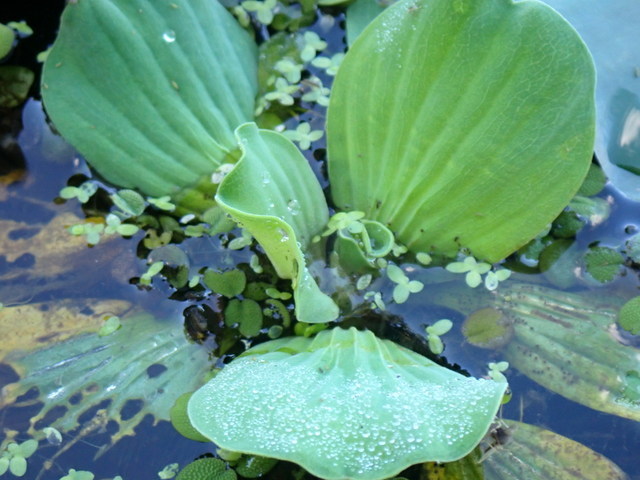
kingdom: Plantae
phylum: Tracheophyta
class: Liliopsida
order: Alismatales
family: Araceae
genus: Pistia
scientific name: Pistia stratiotes
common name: Water lettuce
